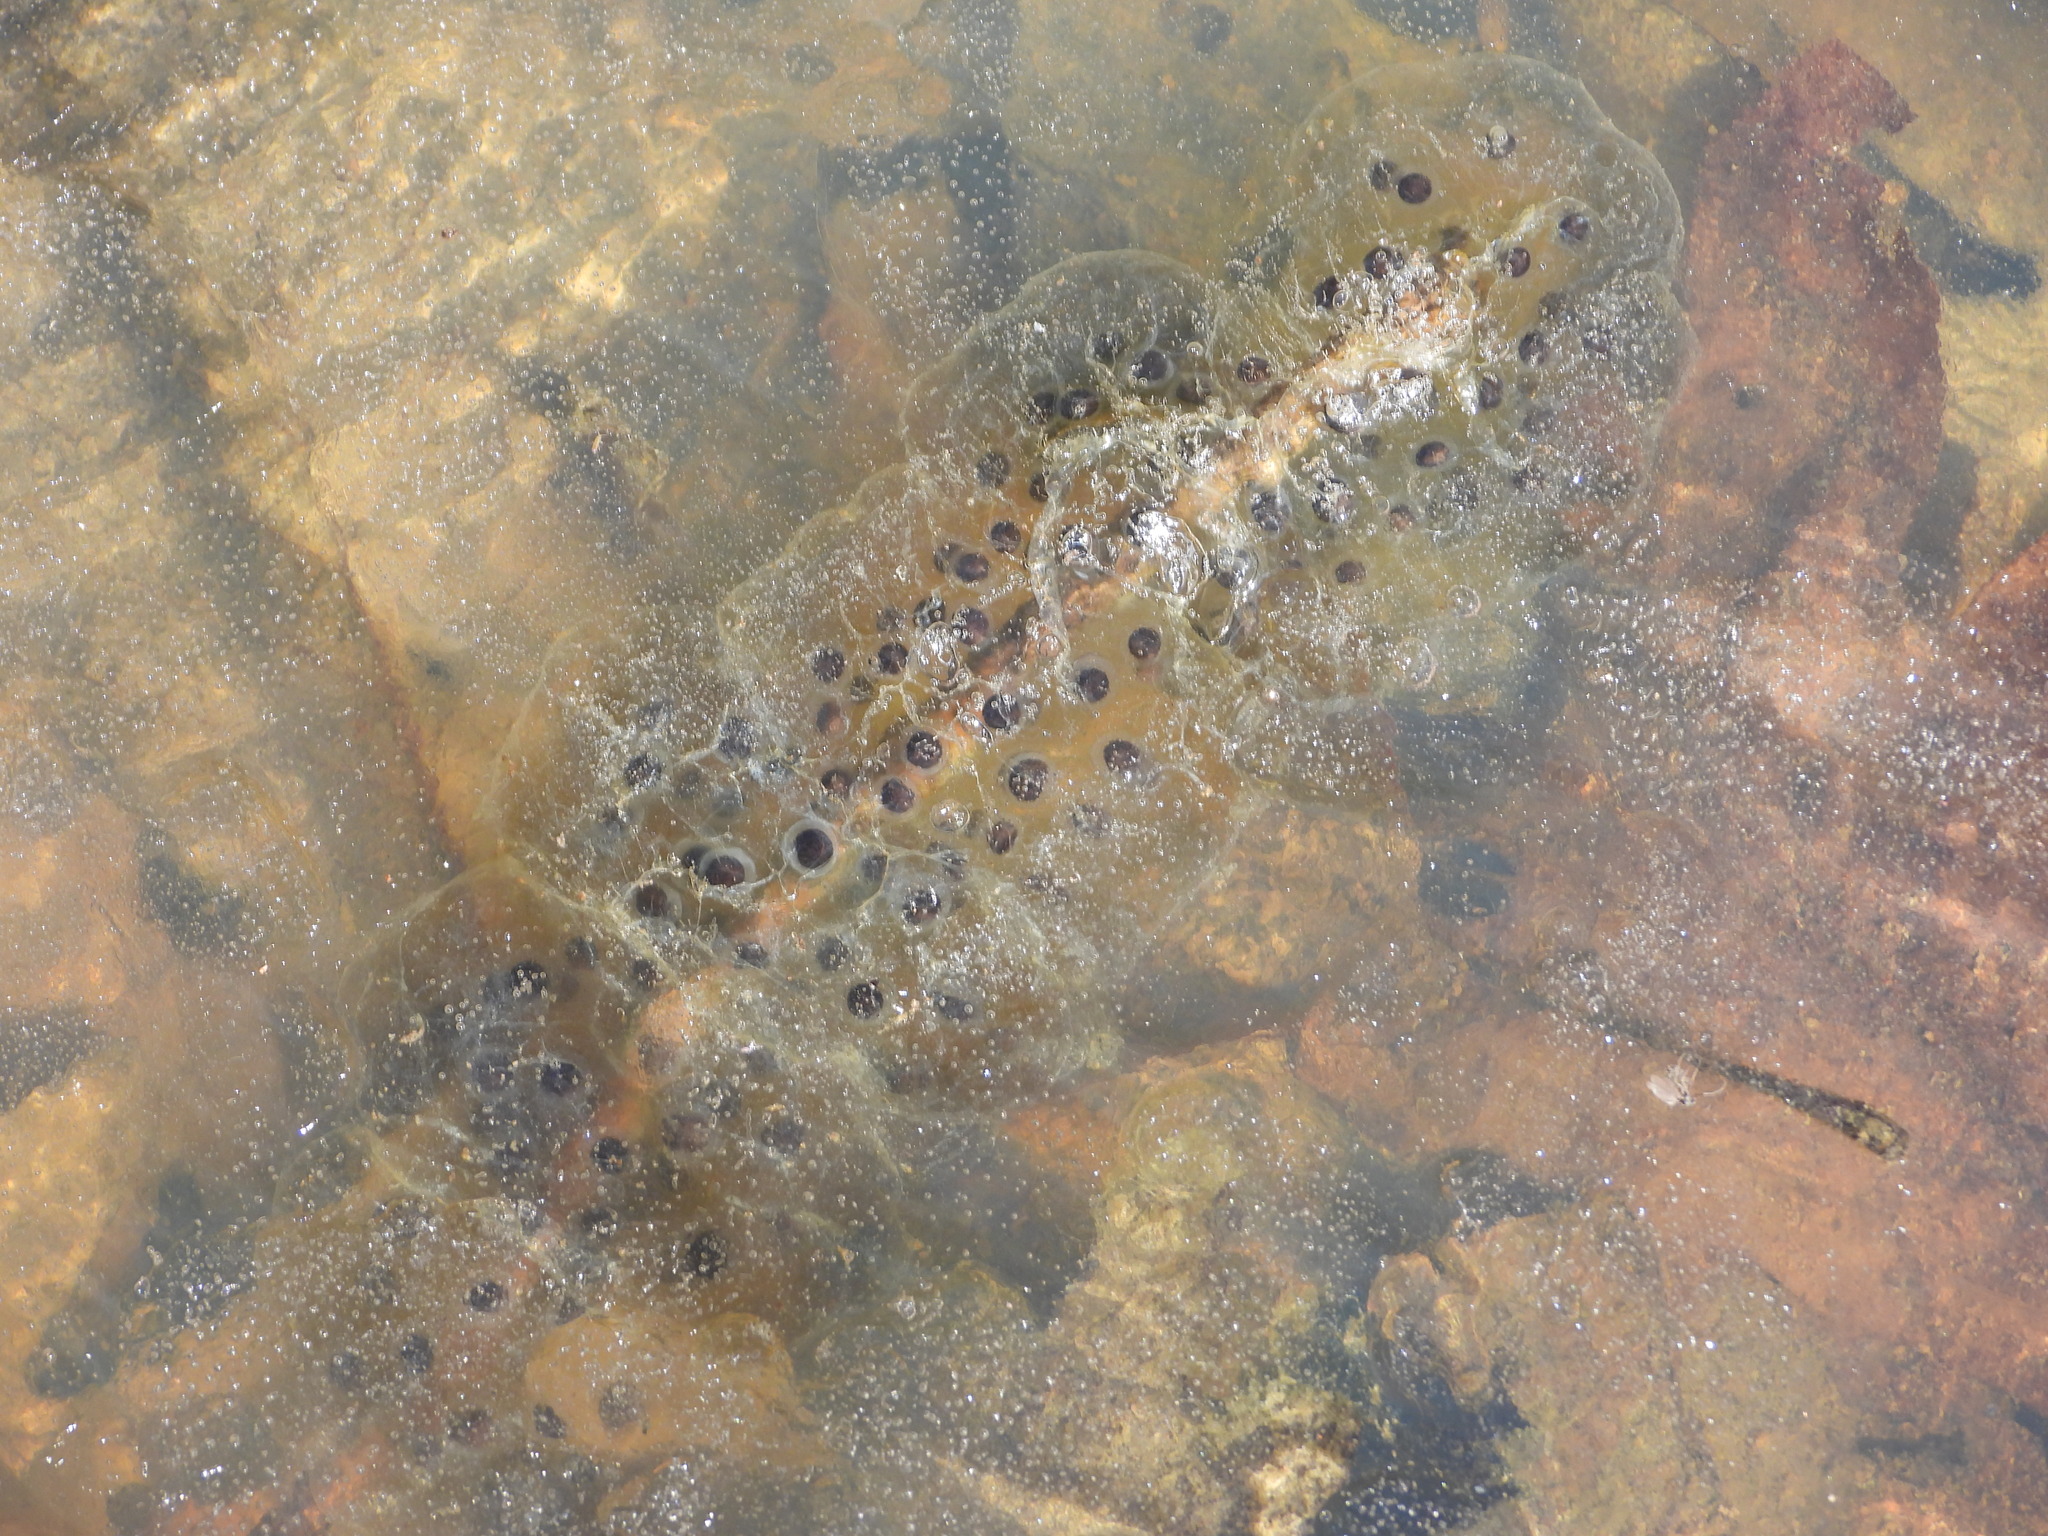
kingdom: Animalia
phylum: Chordata
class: Amphibia
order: Caudata
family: Ambystomatidae
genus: Ambystoma
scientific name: Ambystoma maculatum
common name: Spotted salamander
